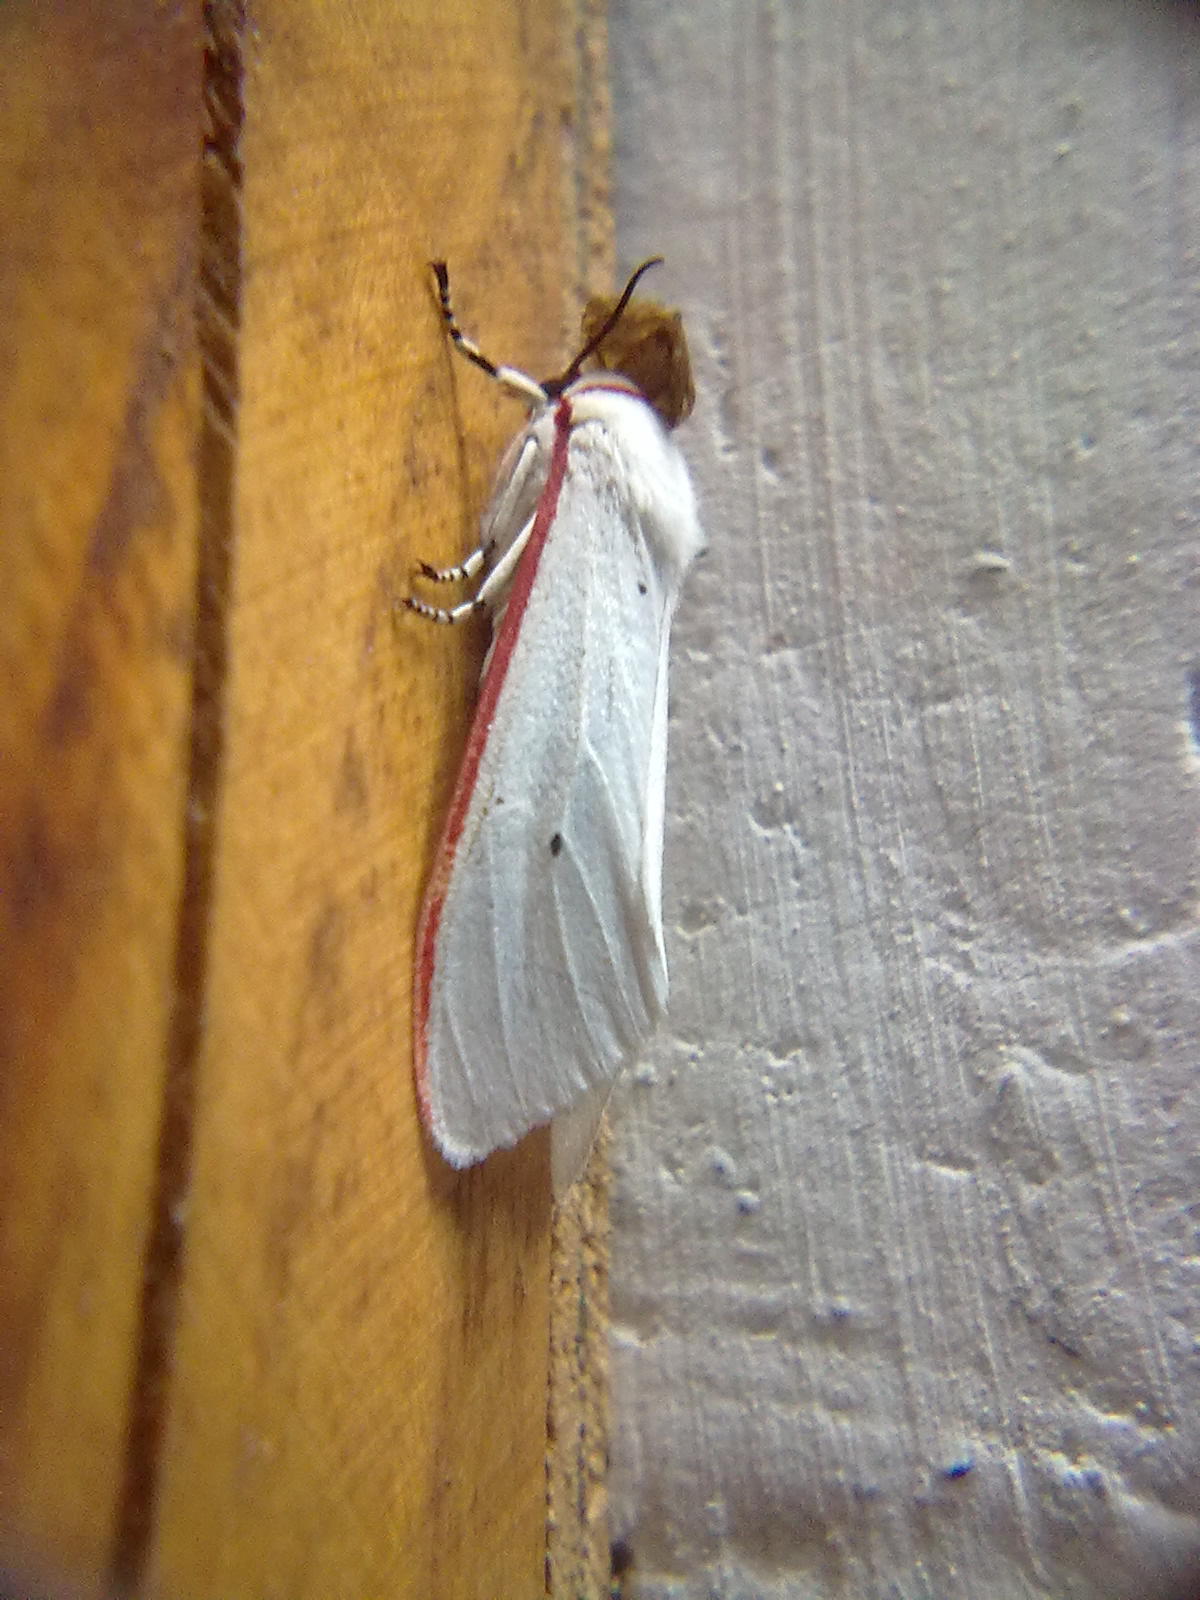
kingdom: Animalia
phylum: Arthropoda
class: Insecta
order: Lepidoptera
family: Erebidae
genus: Aloa
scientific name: Aloa lactinea
